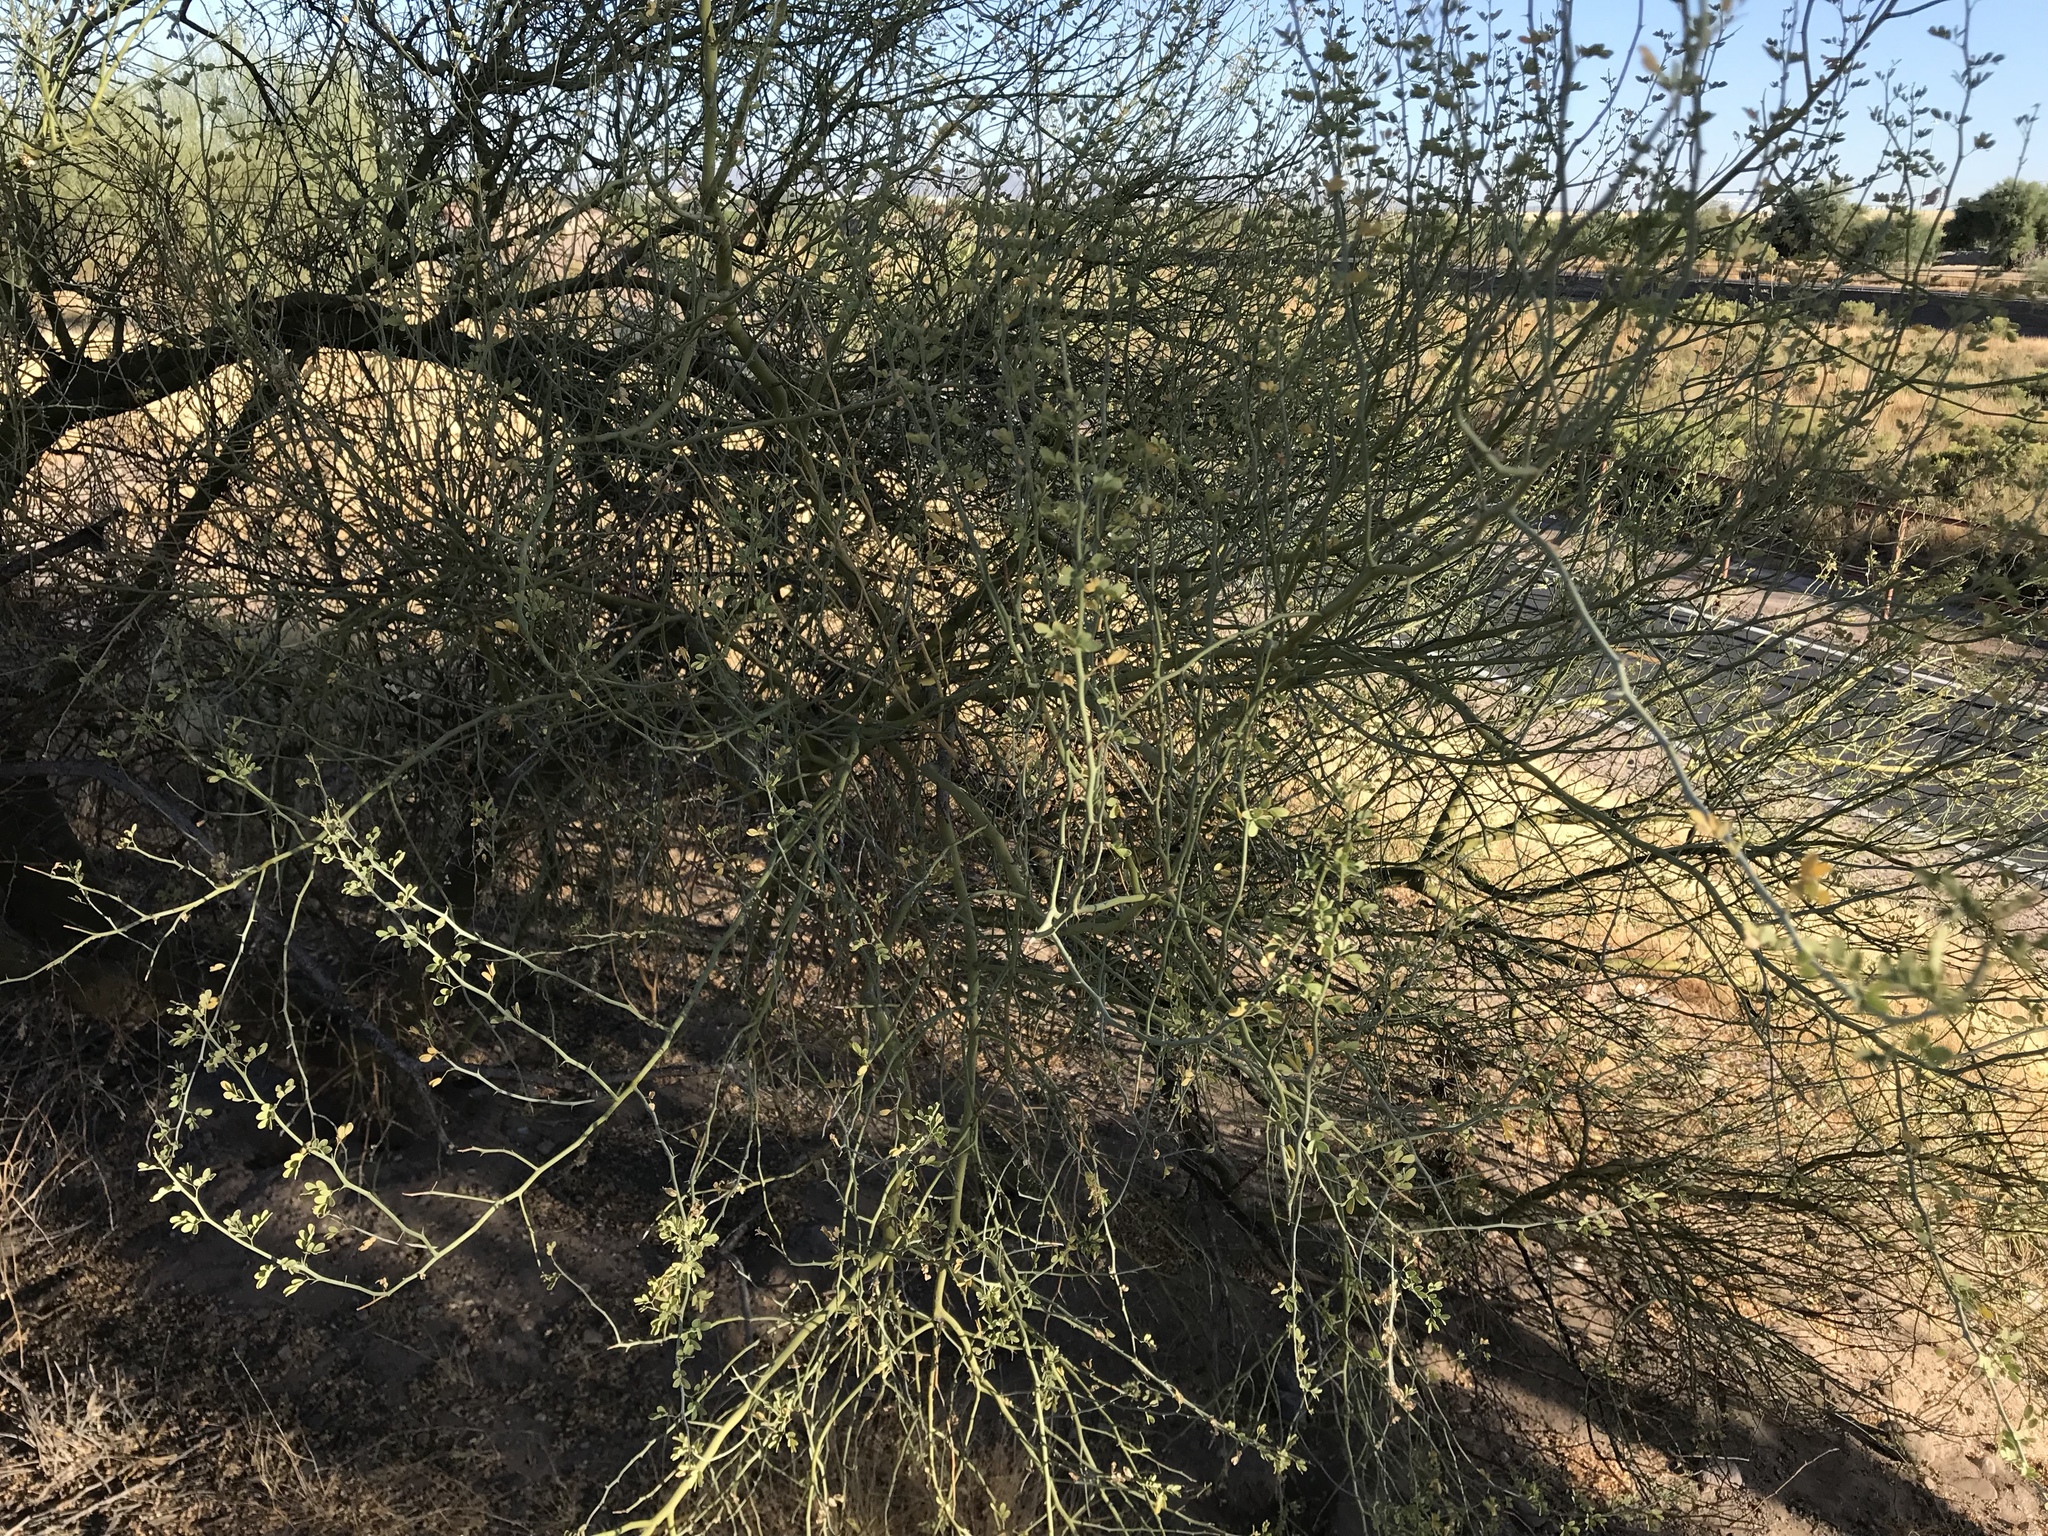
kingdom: Plantae
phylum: Tracheophyta
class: Magnoliopsida
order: Fabales
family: Fabaceae
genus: Parkinsonia
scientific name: Parkinsonia florida
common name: Blue paloverde
